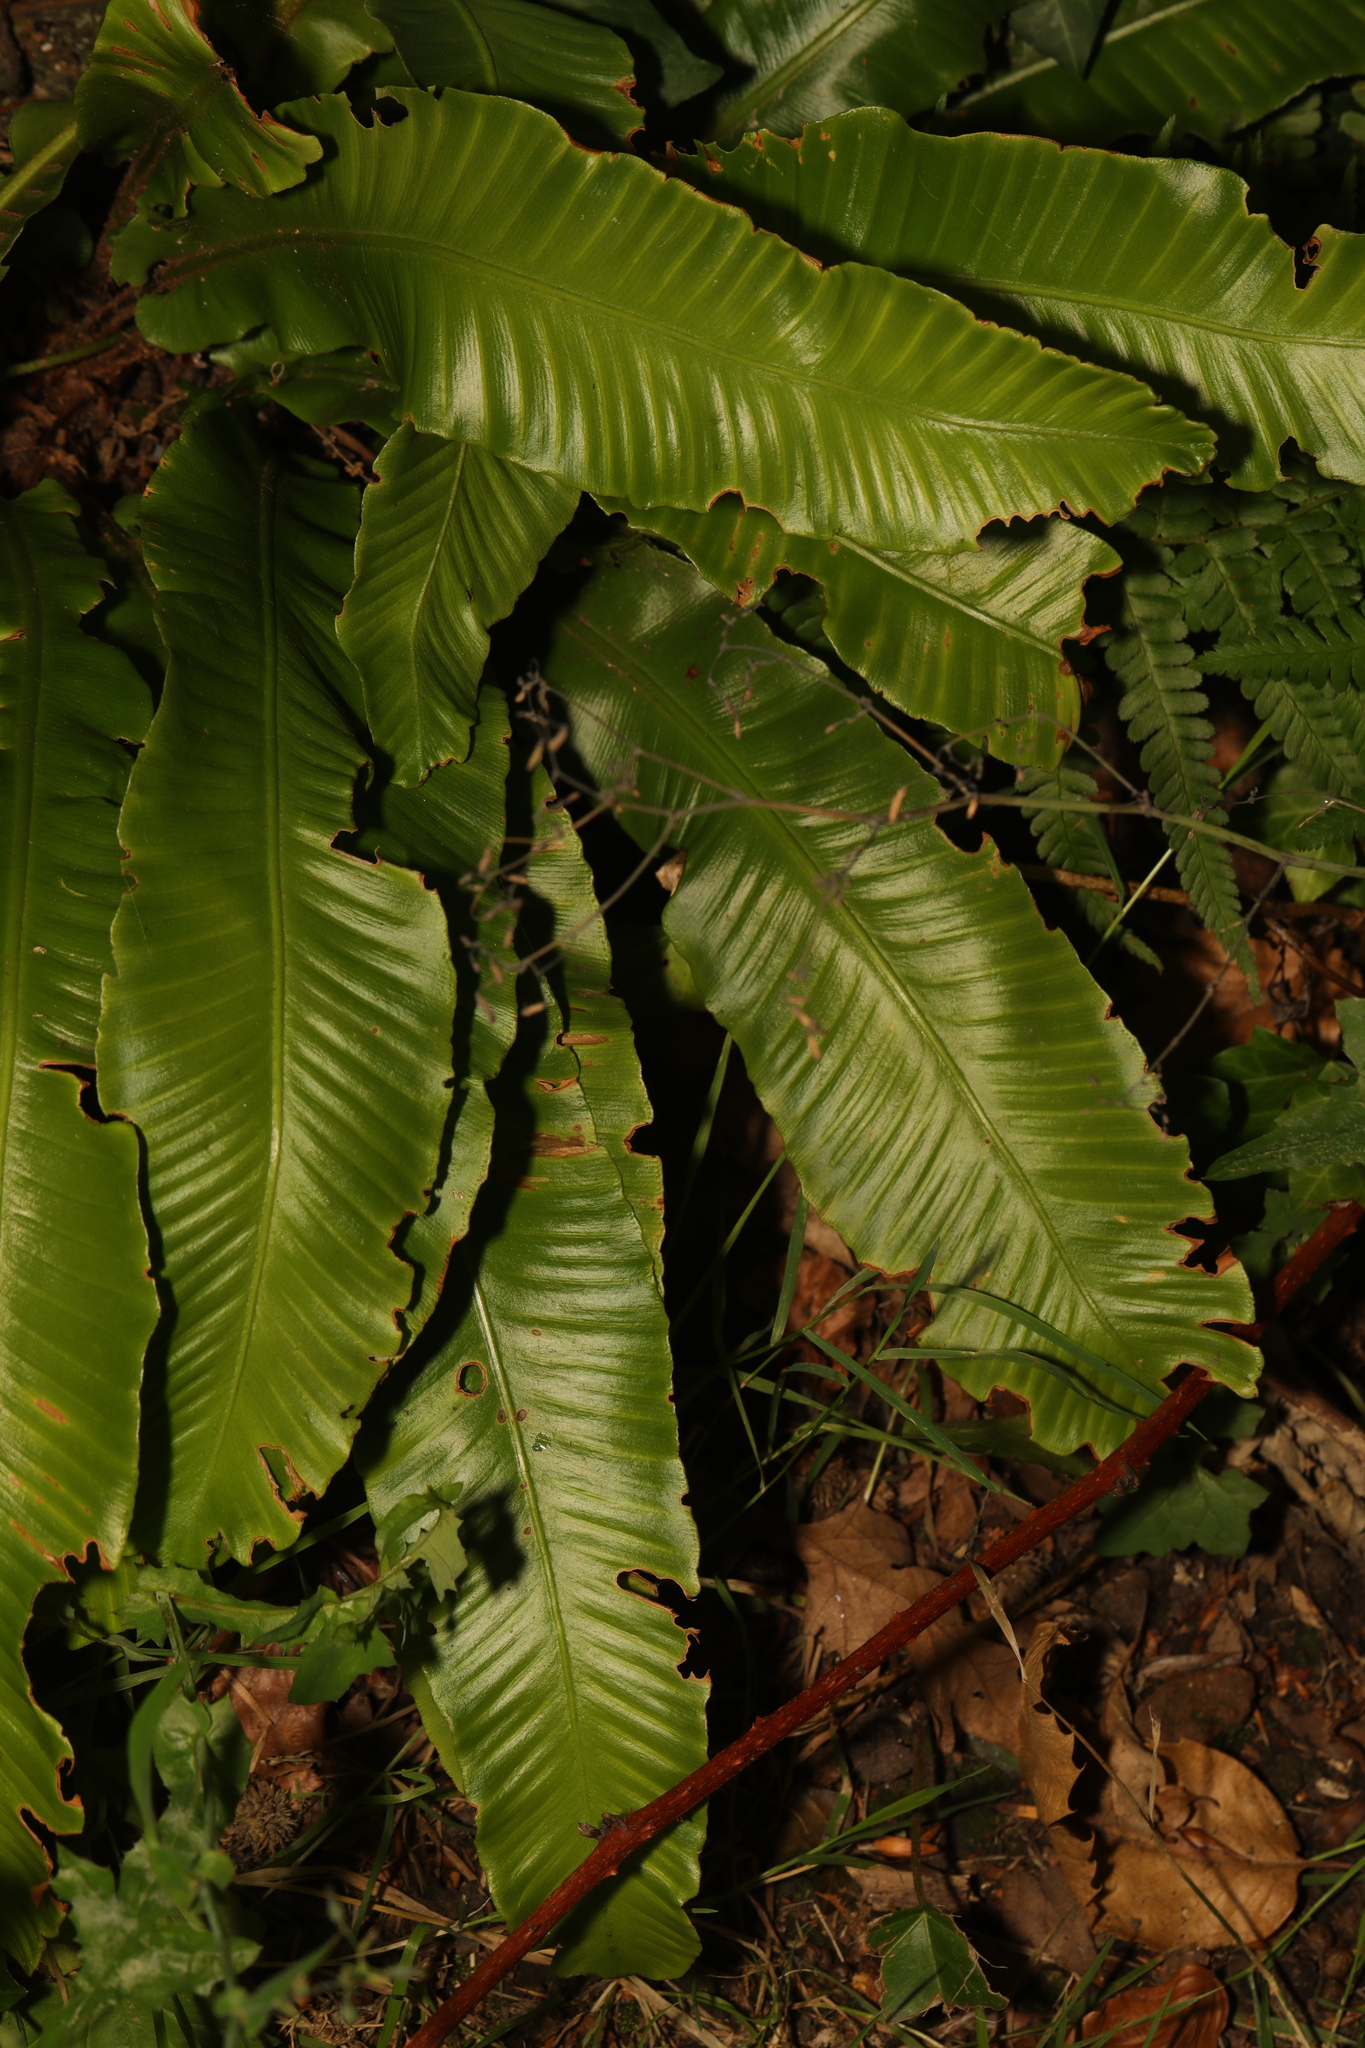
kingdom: Plantae
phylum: Tracheophyta
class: Polypodiopsida
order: Polypodiales
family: Aspleniaceae
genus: Asplenium
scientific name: Asplenium scolopendrium
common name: Hart's-tongue fern
